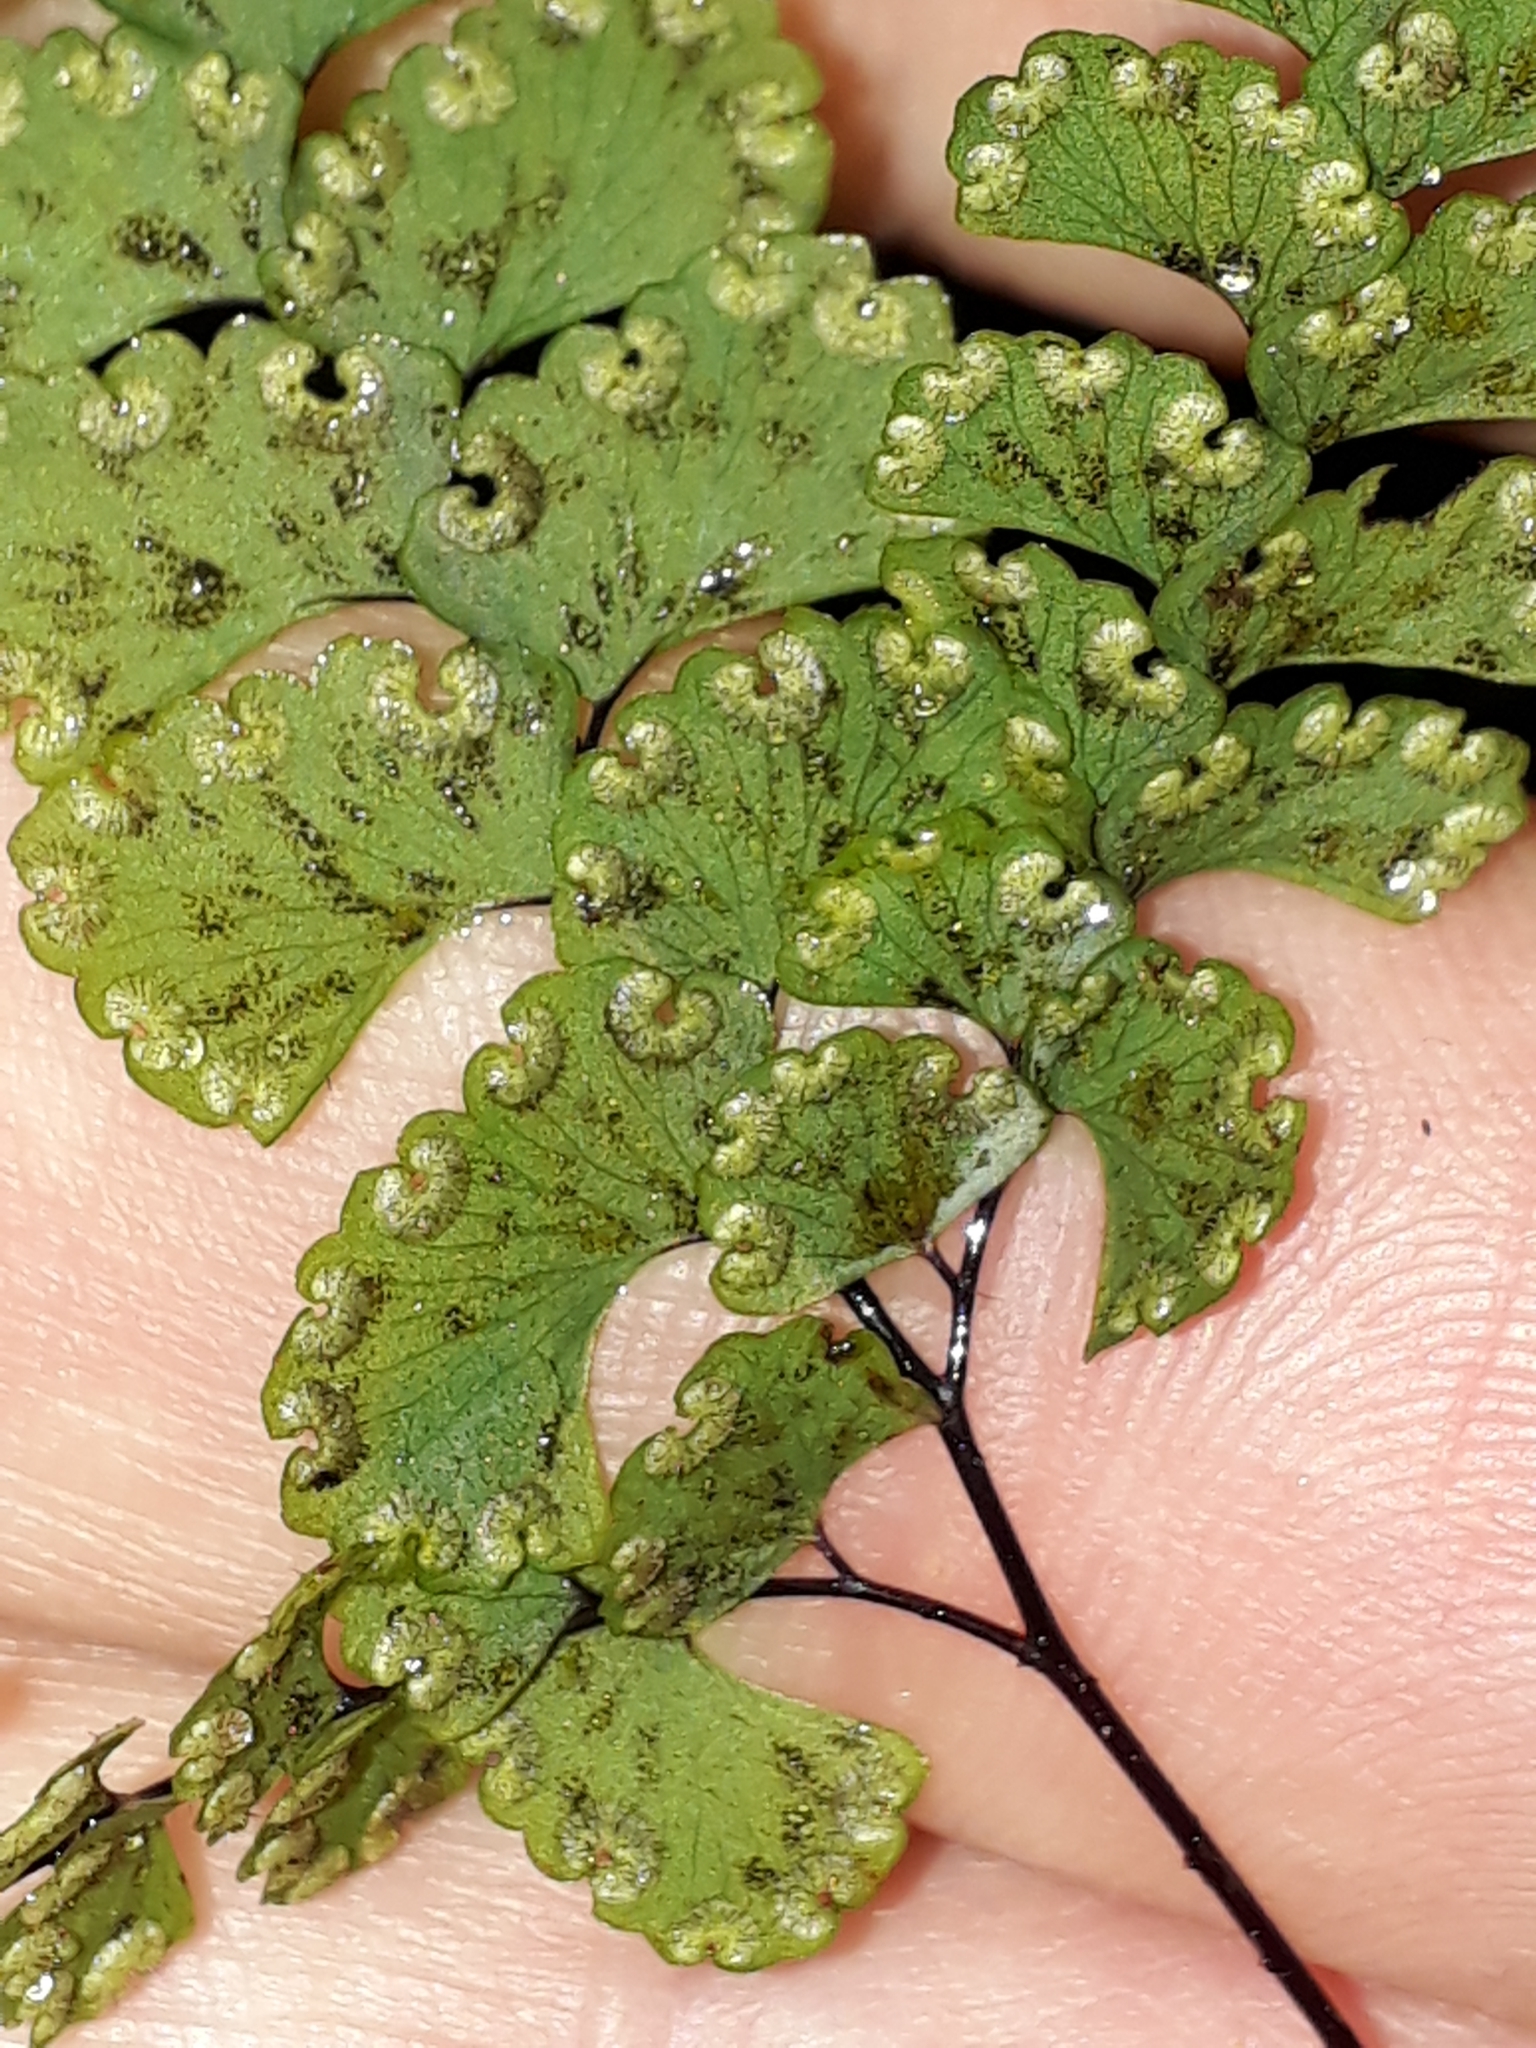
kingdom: Plantae
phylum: Tracheophyta
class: Polypodiopsida
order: Polypodiales
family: Pteridaceae
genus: Adiantum
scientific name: Adiantum diaphanum
